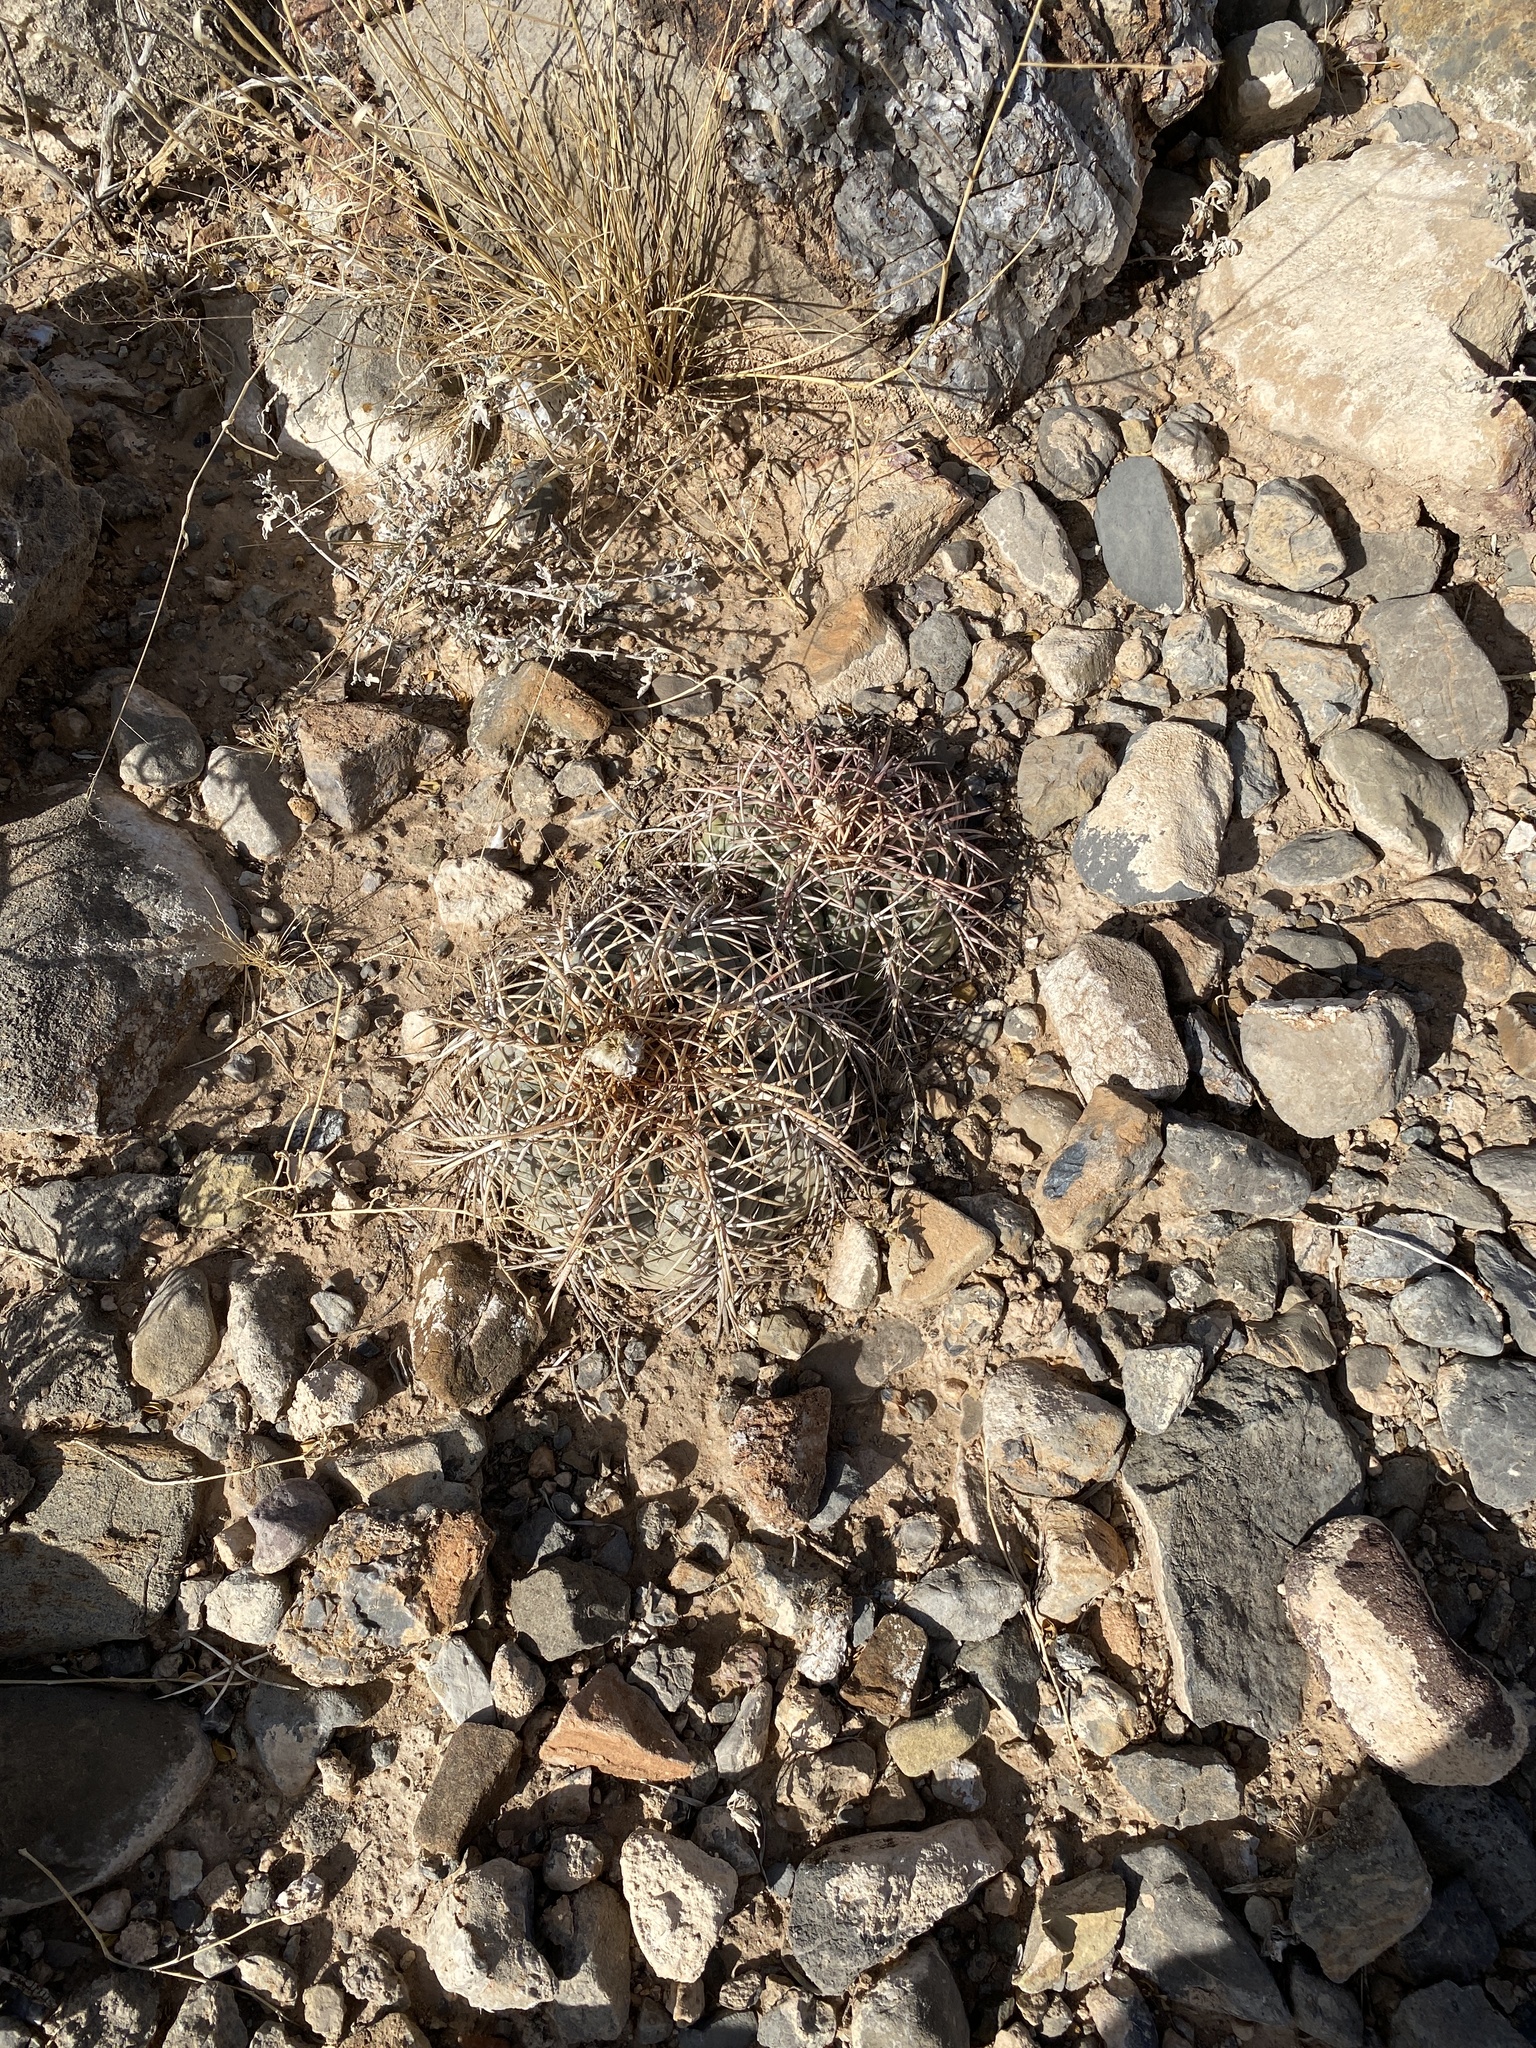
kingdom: Plantae
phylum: Tracheophyta
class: Magnoliopsida
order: Caryophyllales
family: Cactaceae
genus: Echinocactus
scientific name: Echinocactus horizonthalonius
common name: Devilshead
